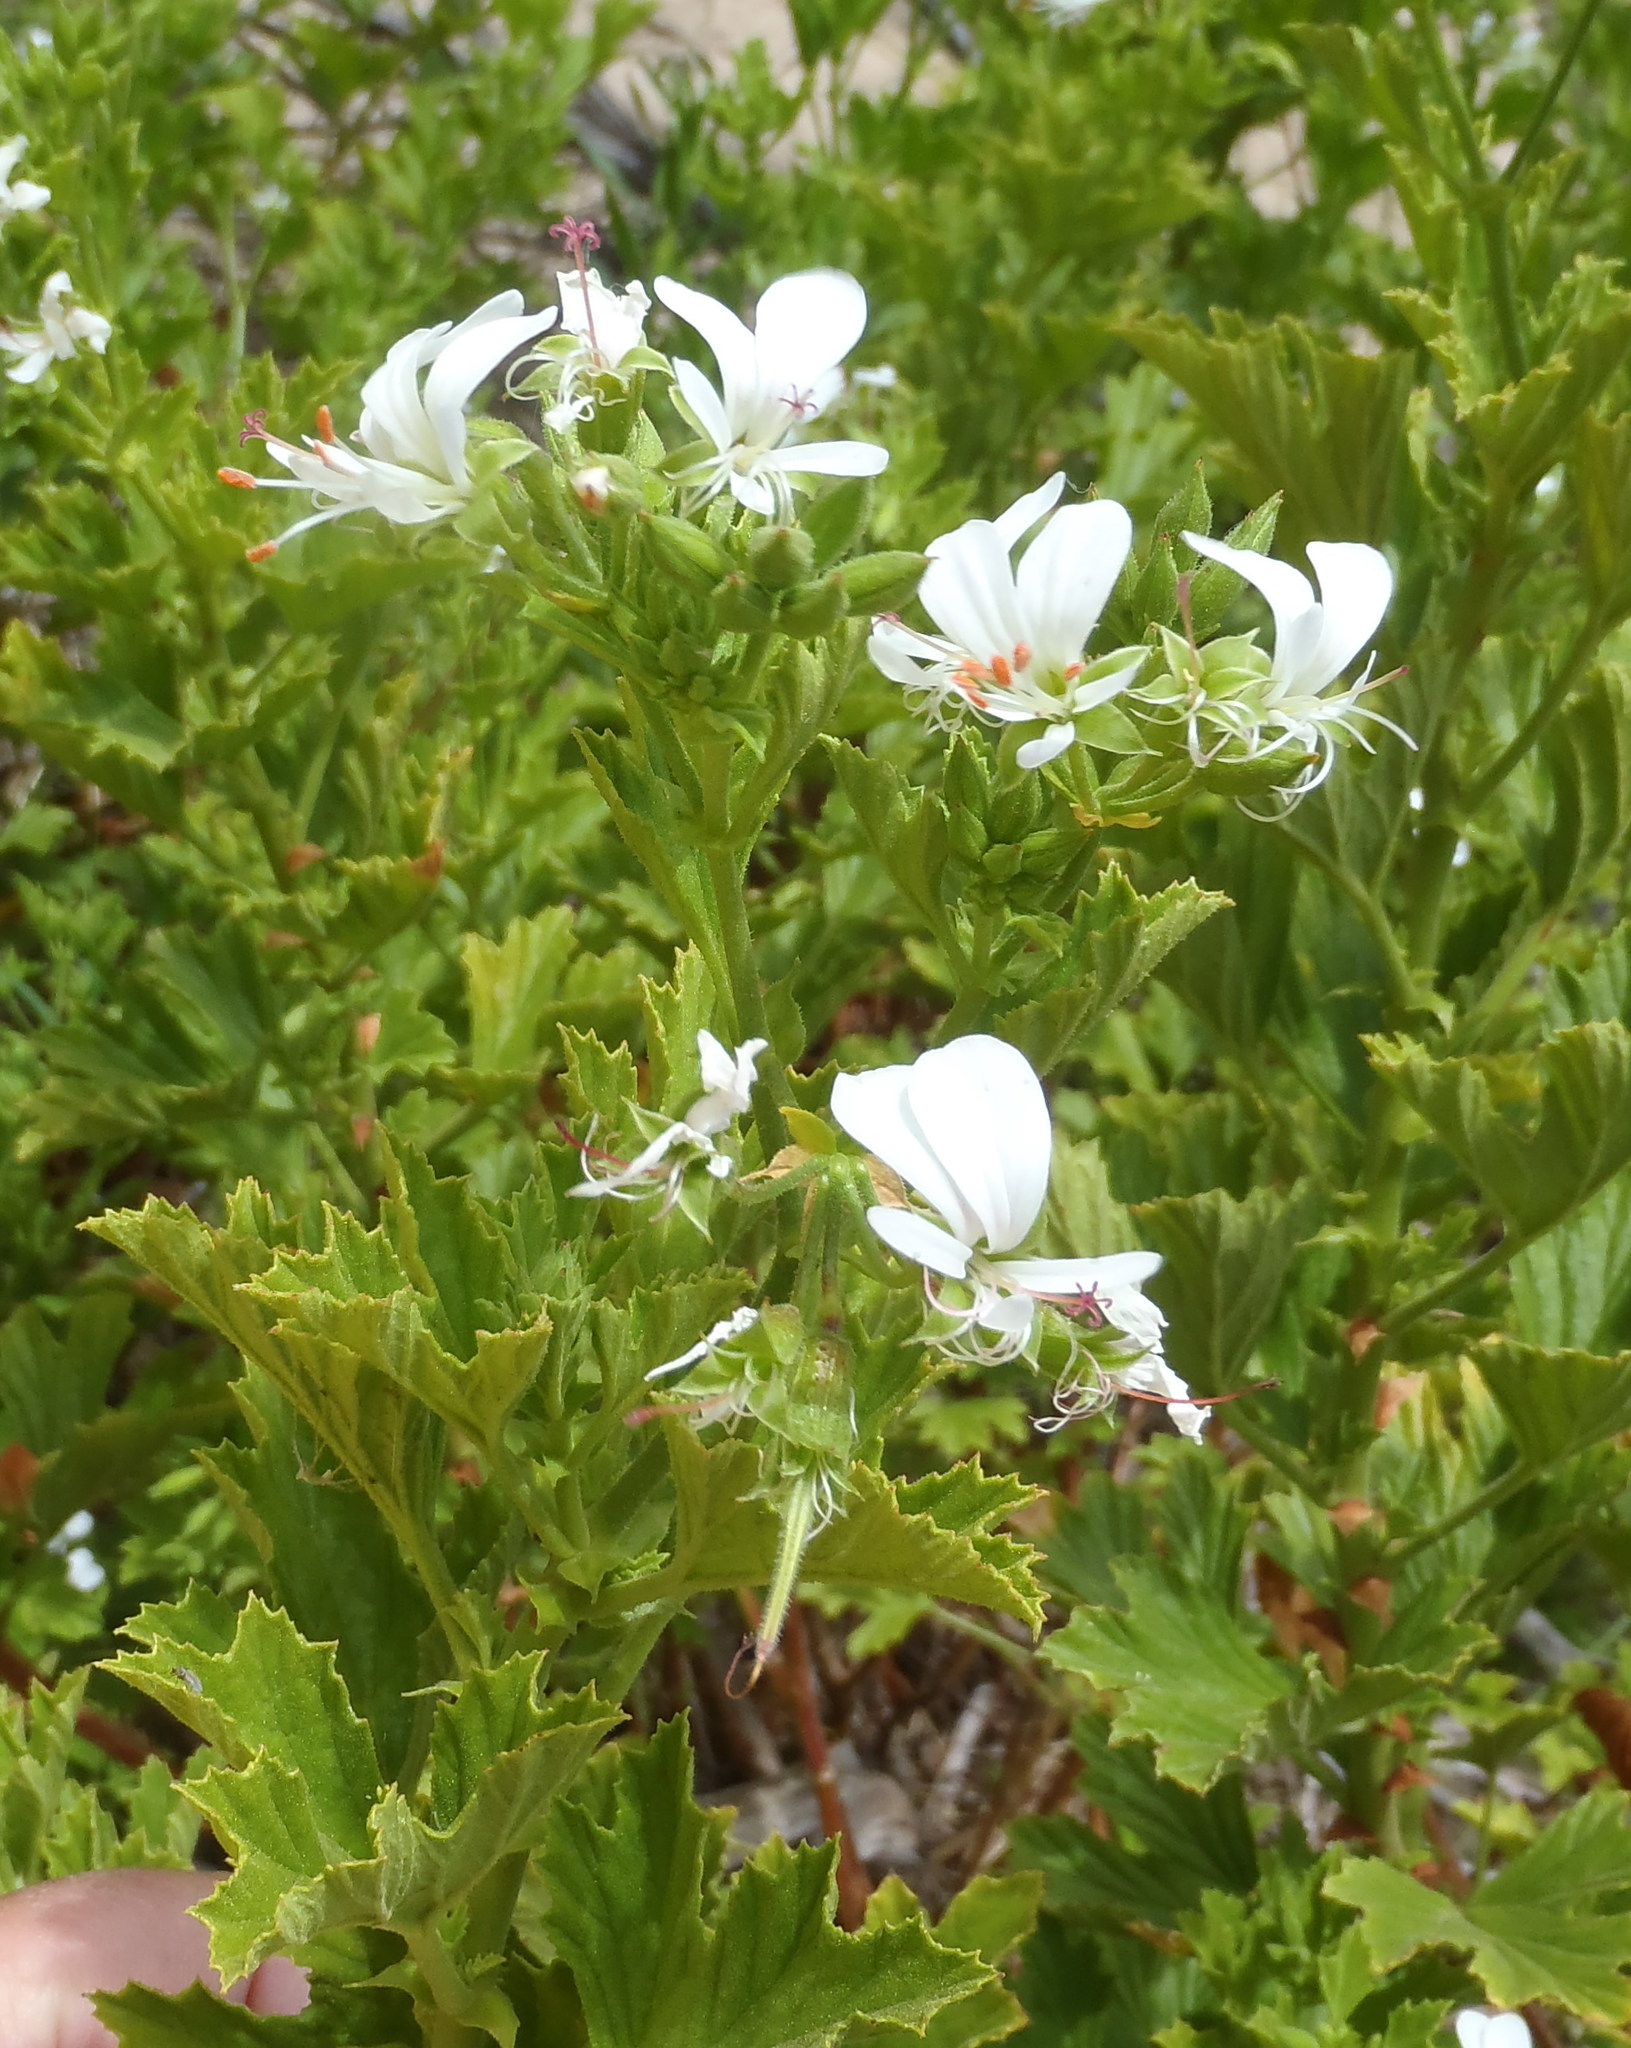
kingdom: Plantae
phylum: Tracheophyta
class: Magnoliopsida
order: Geraniales
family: Geraniaceae
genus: Pelargonium
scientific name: Pelargonium ribifolium
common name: Currant-leaf pelargonium
